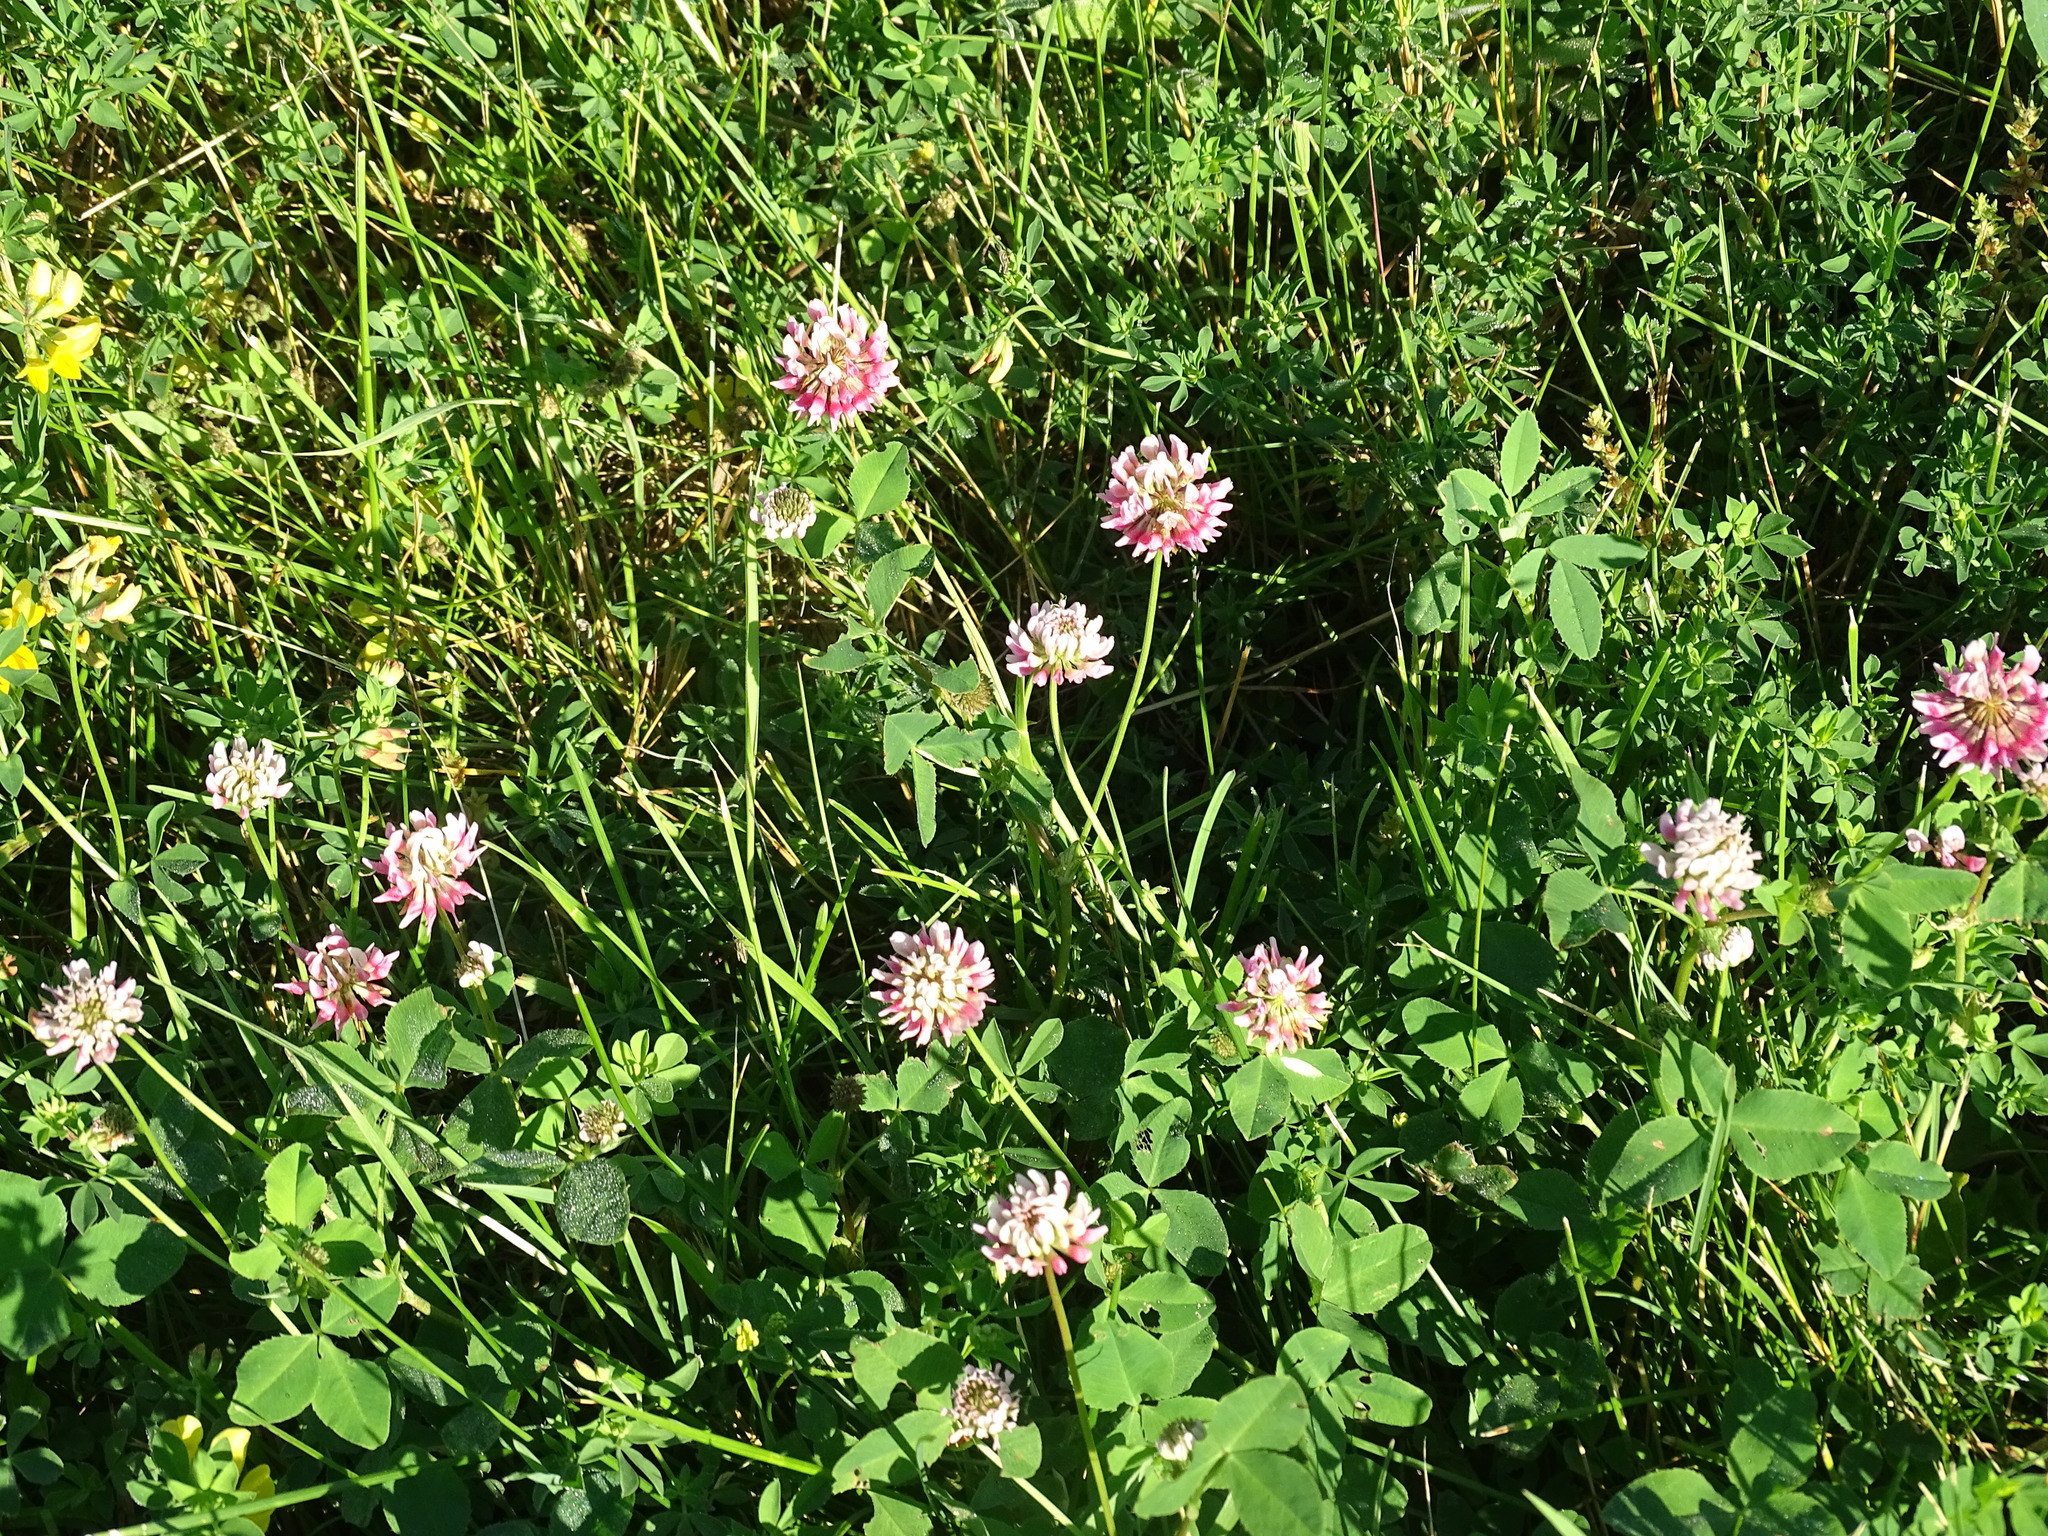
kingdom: Plantae
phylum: Tracheophyta
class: Magnoliopsida
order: Fabales
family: Fabaceae
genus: Trifolium
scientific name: Trifolium hybridum
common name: Alsike clover
